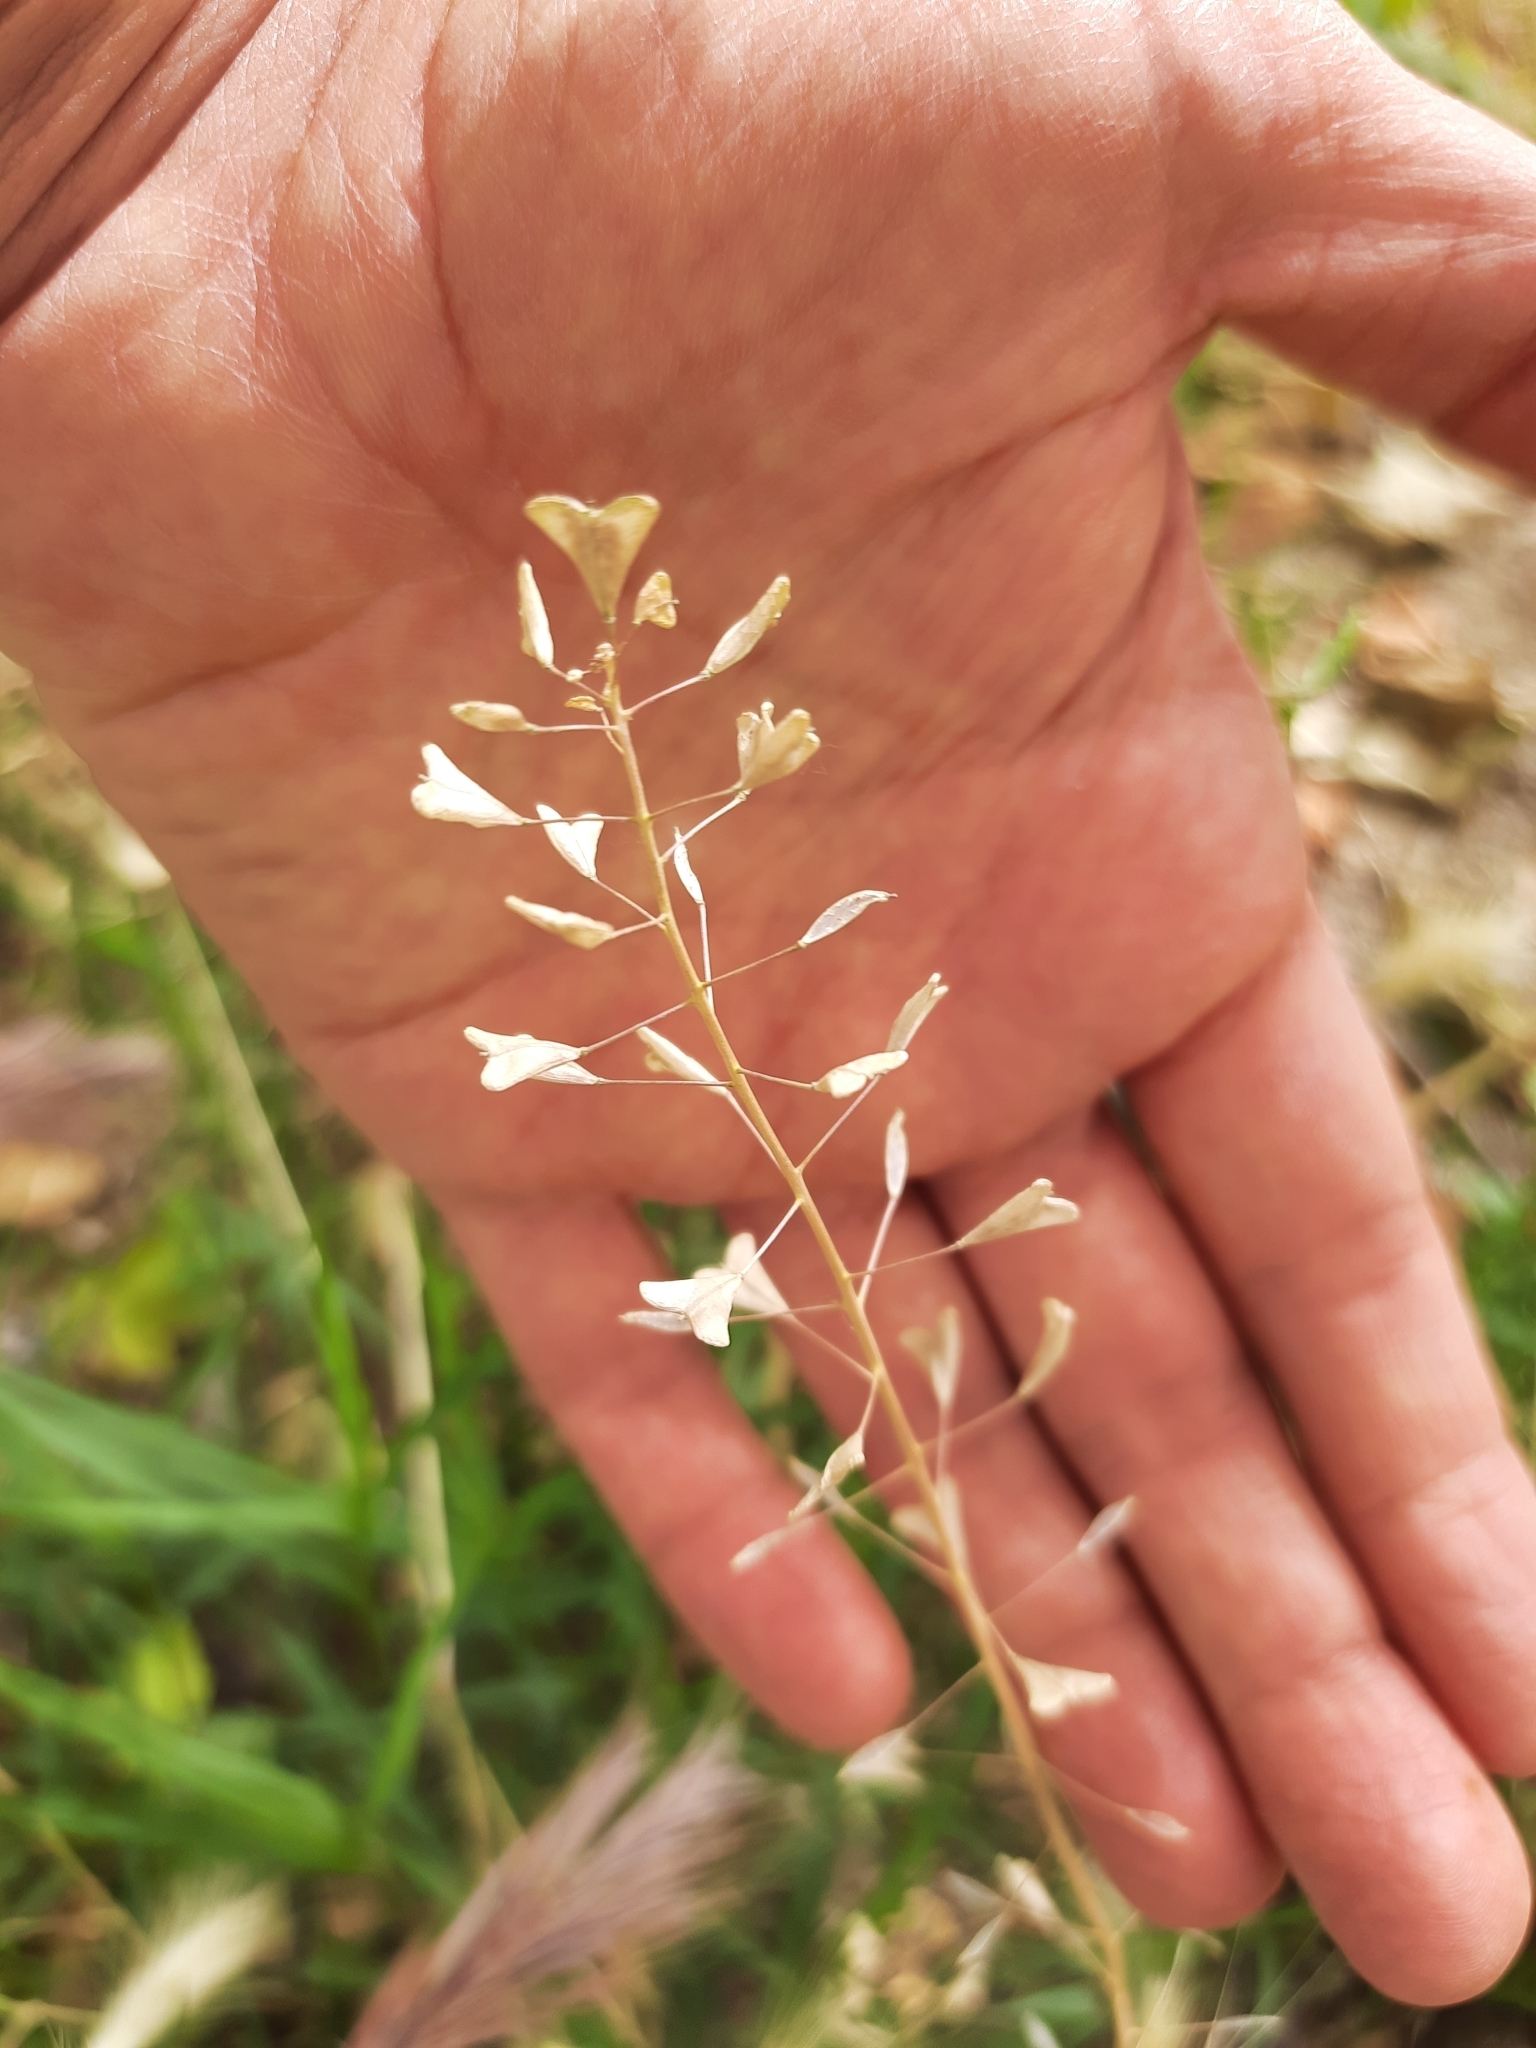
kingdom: Plantae
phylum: Tracheophyta
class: Magnoliopsida
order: Brassicales
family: Brassicaceae
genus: Capsella
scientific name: Capsella bursa-pastoris
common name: Shepherd's purse
